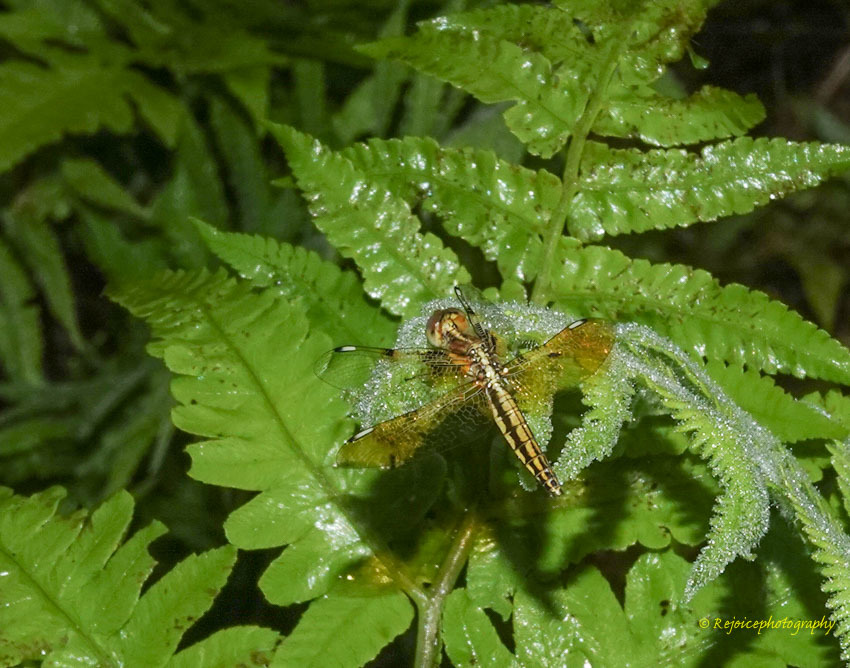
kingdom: Animalia
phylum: Arthropoda
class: Insecta
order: Odonata
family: Libellulidae
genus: Palpopleura
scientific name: Palpopleura sexmaculata
